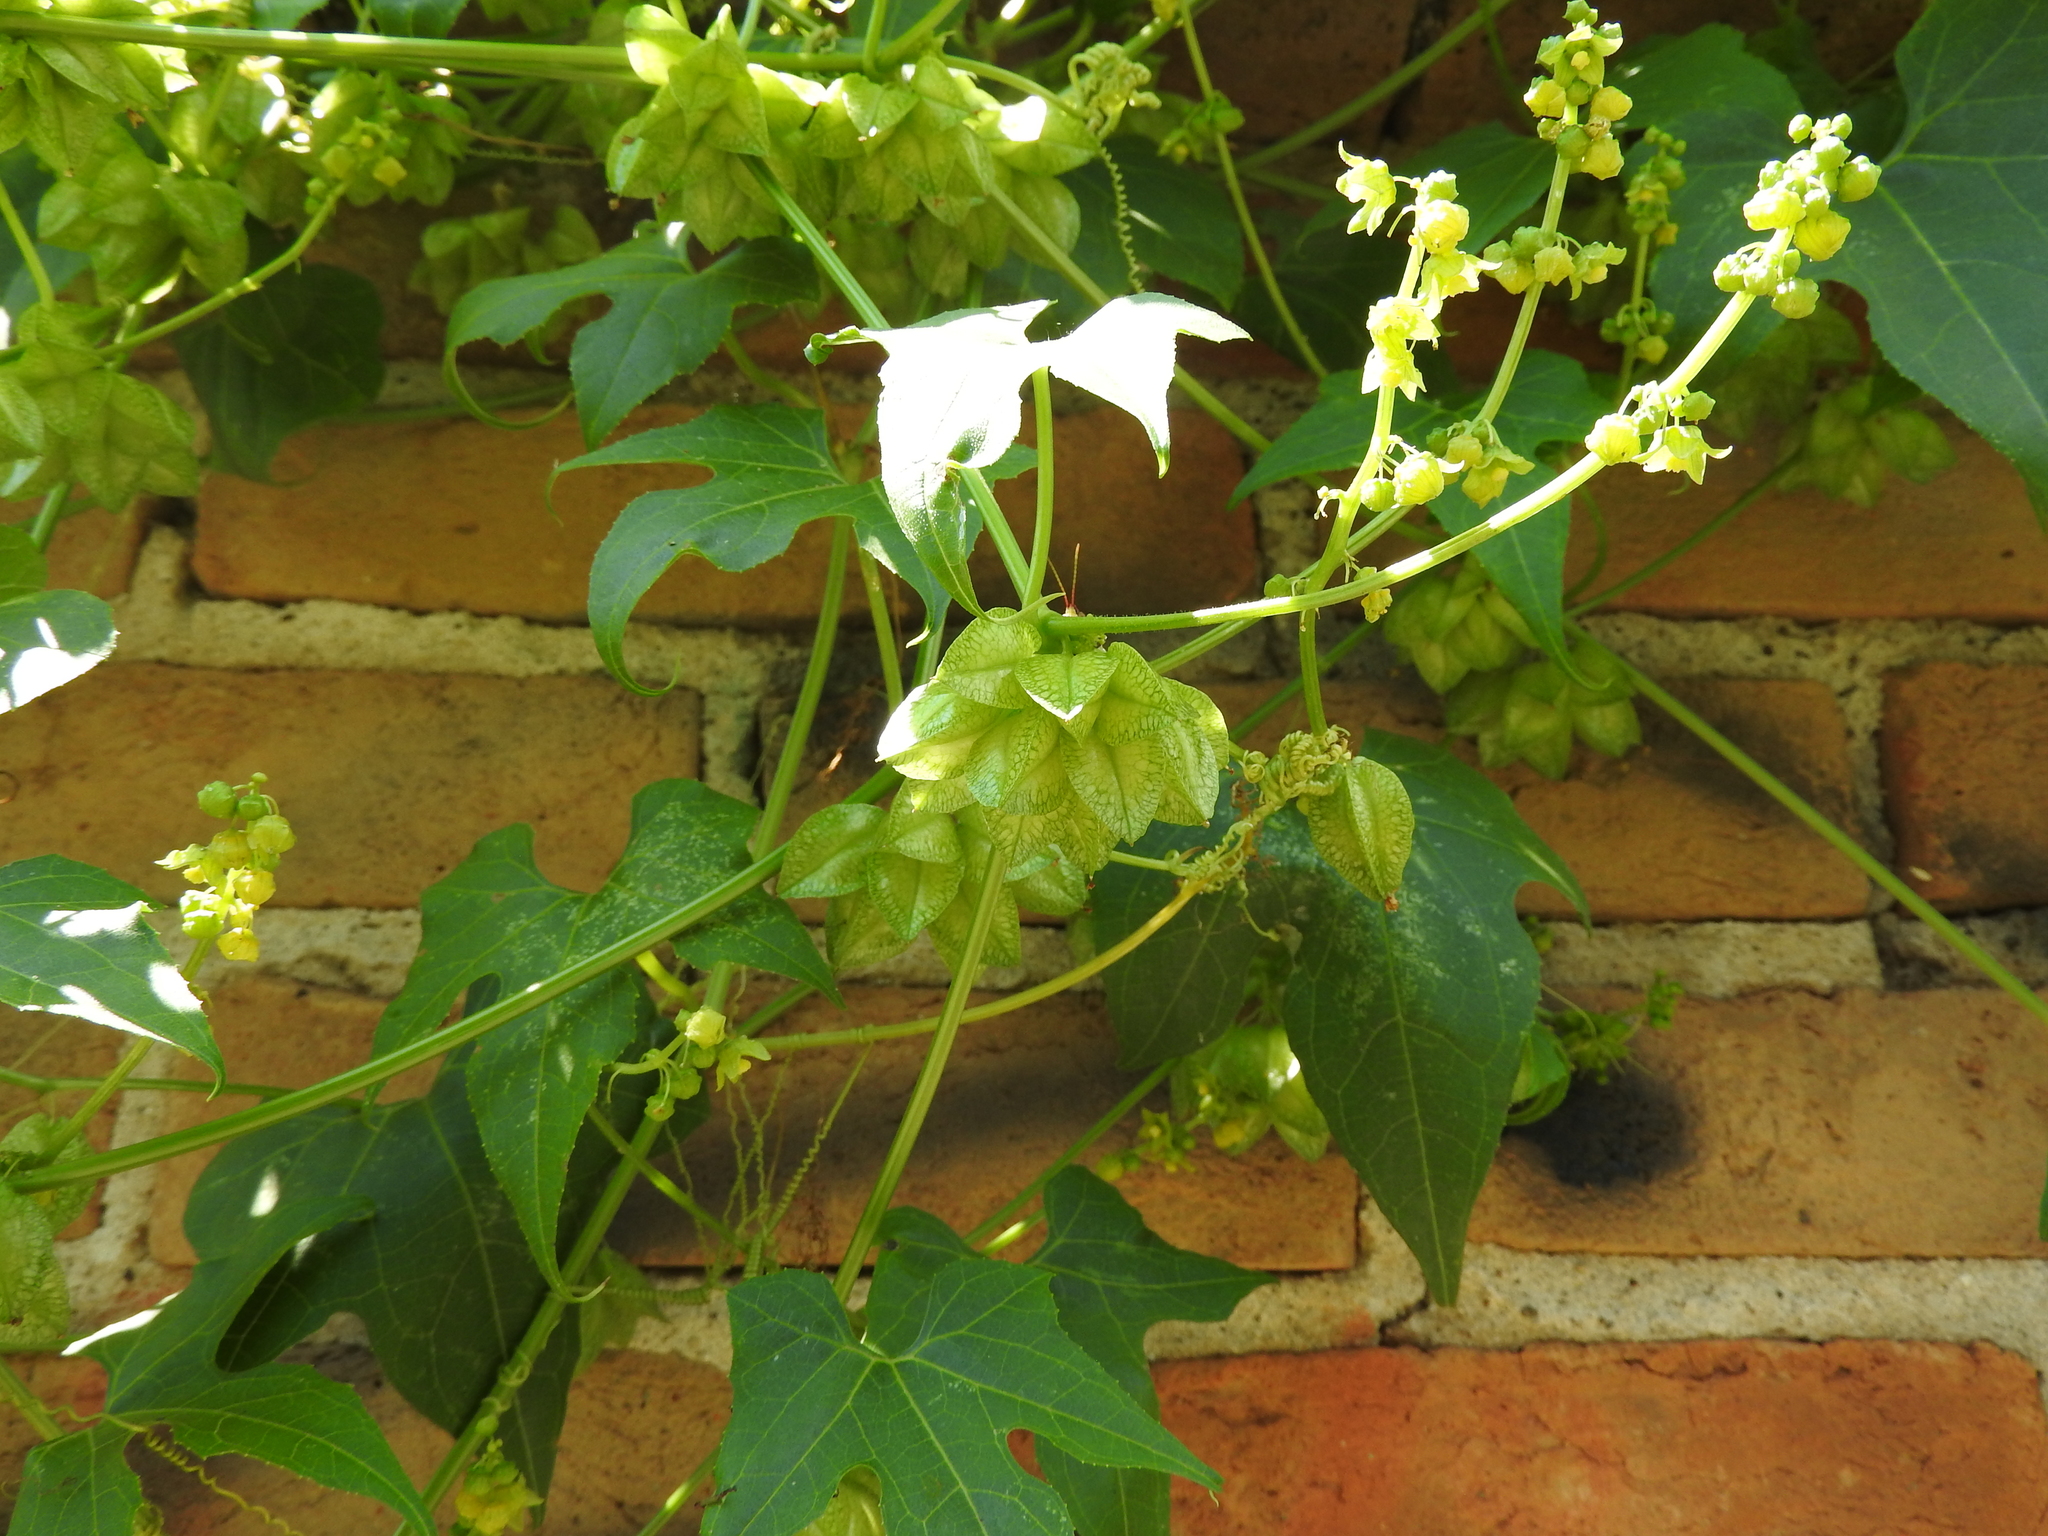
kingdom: Plantae
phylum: Tracheophyta
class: Magnoliopsida
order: Cucurbitales
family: Cucurbitaceae
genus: Sechiopsis
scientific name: Sechiopsis triquetra
